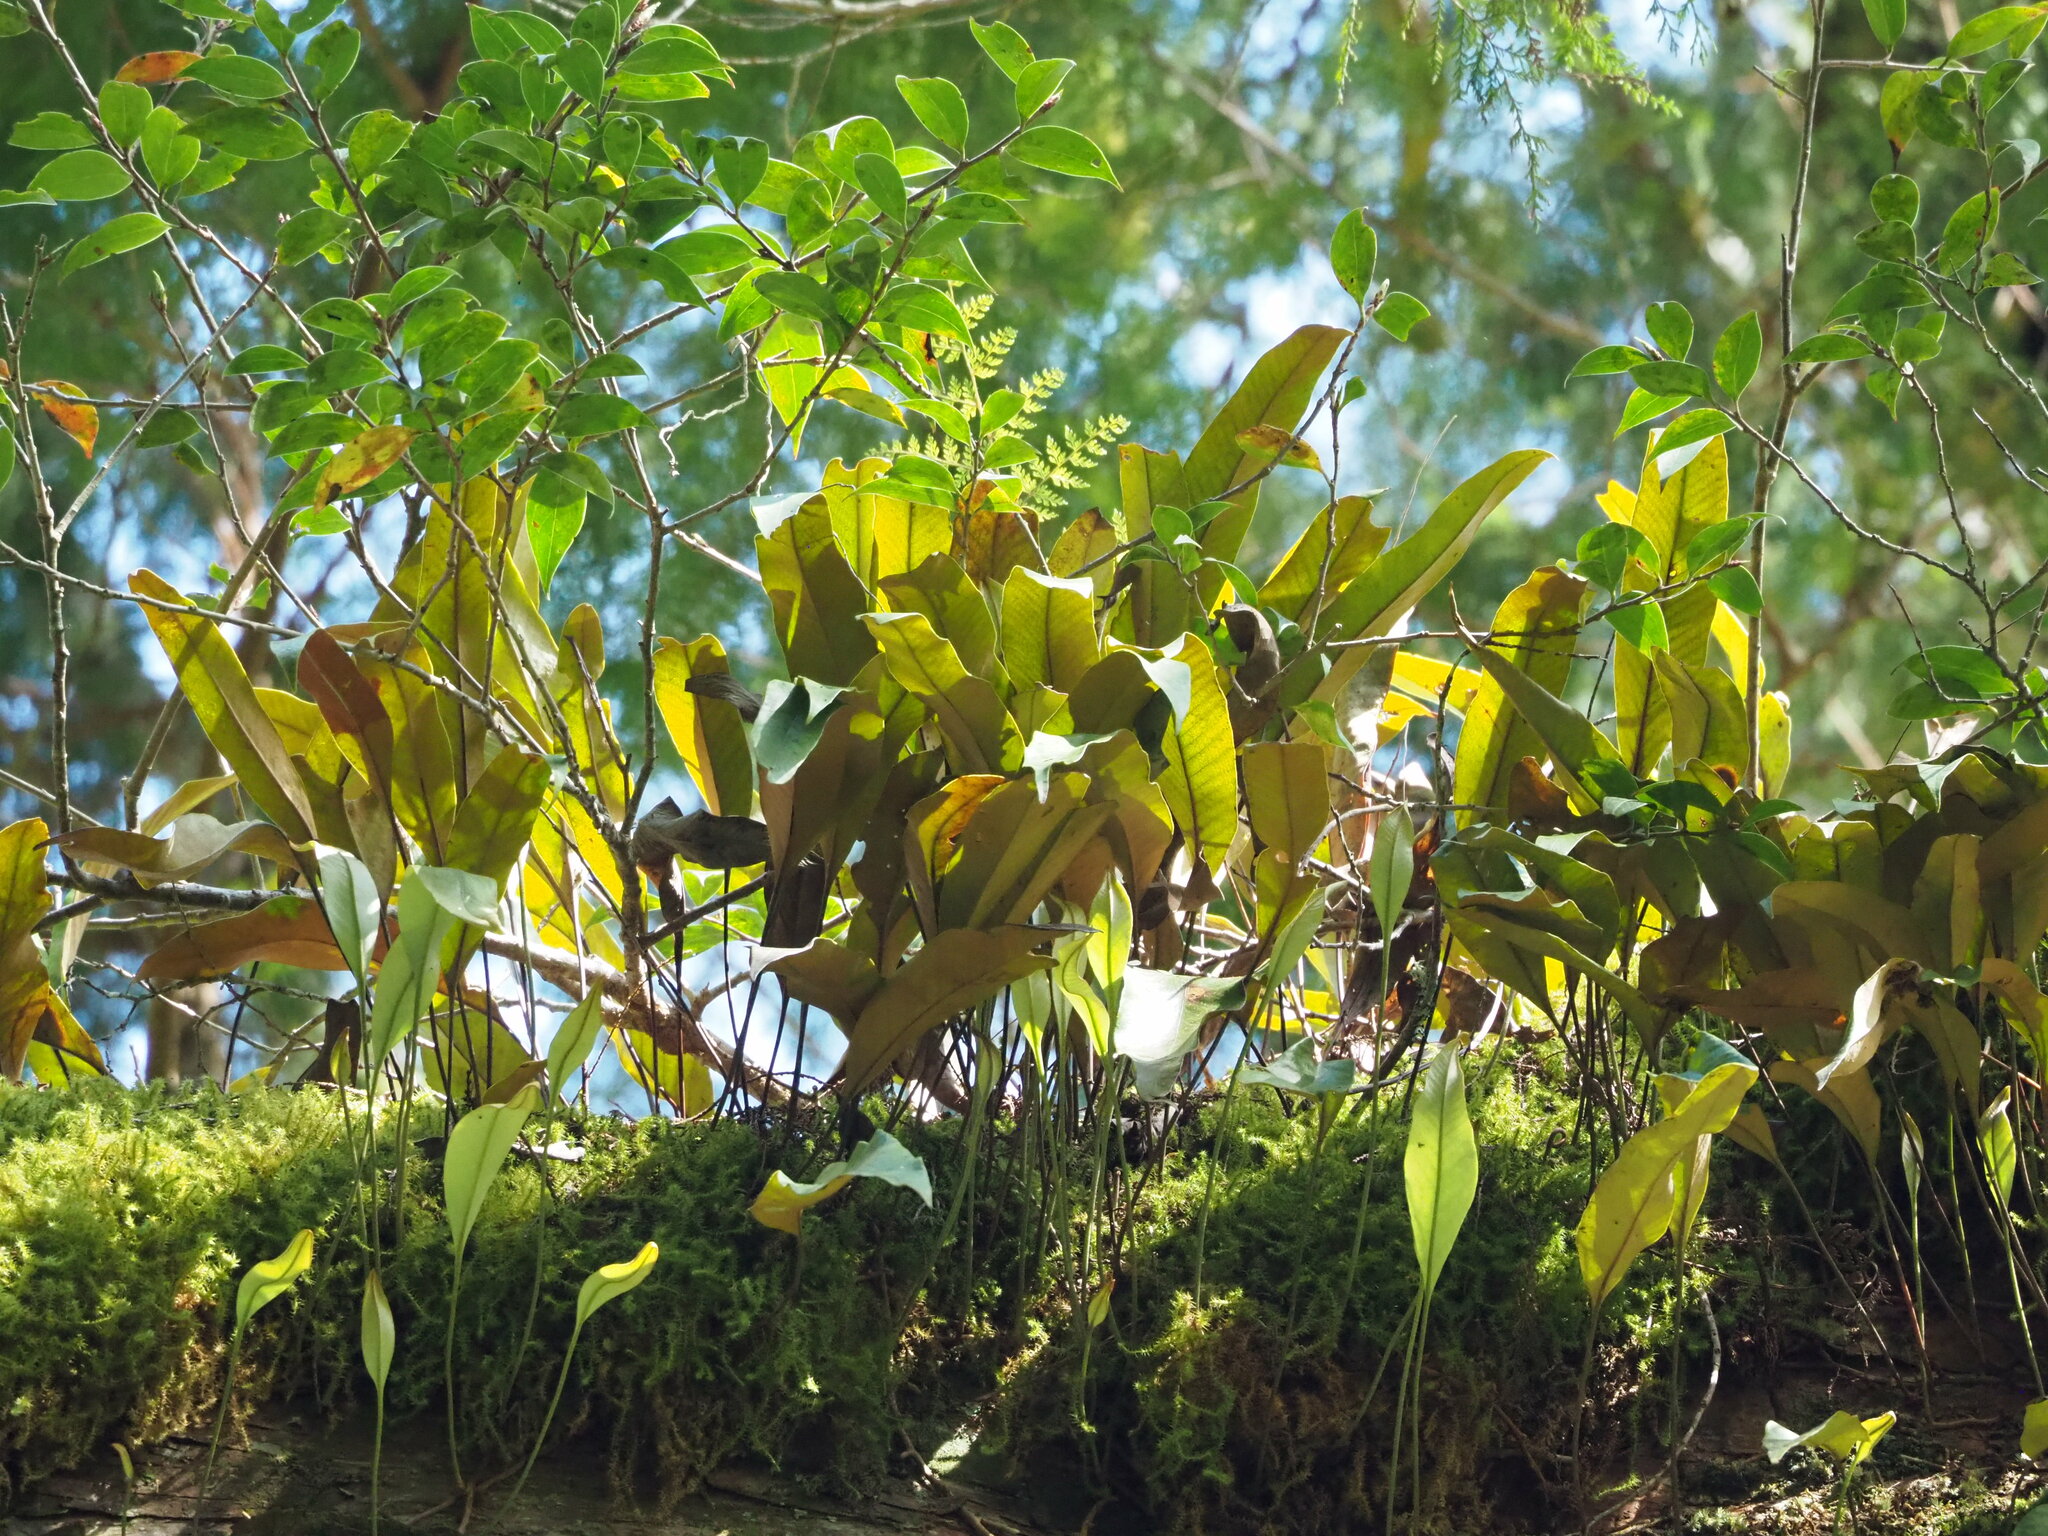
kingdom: Plantae
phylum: Tracheophyta
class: Polypodiopsida
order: Polypodiales
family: Polypodiaceae
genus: Pyrrosia
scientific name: Pyrrosia lingua
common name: Felt fern
